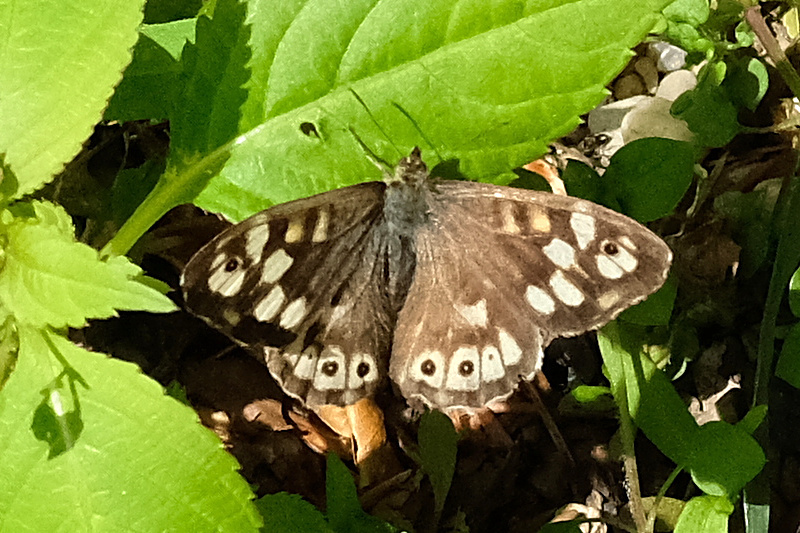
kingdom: Animalia
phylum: Arthropoda
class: Insecta
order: Lepidoptera
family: Nymphalidae
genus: Pararge
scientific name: Pararge aegeria
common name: Speckled wood
